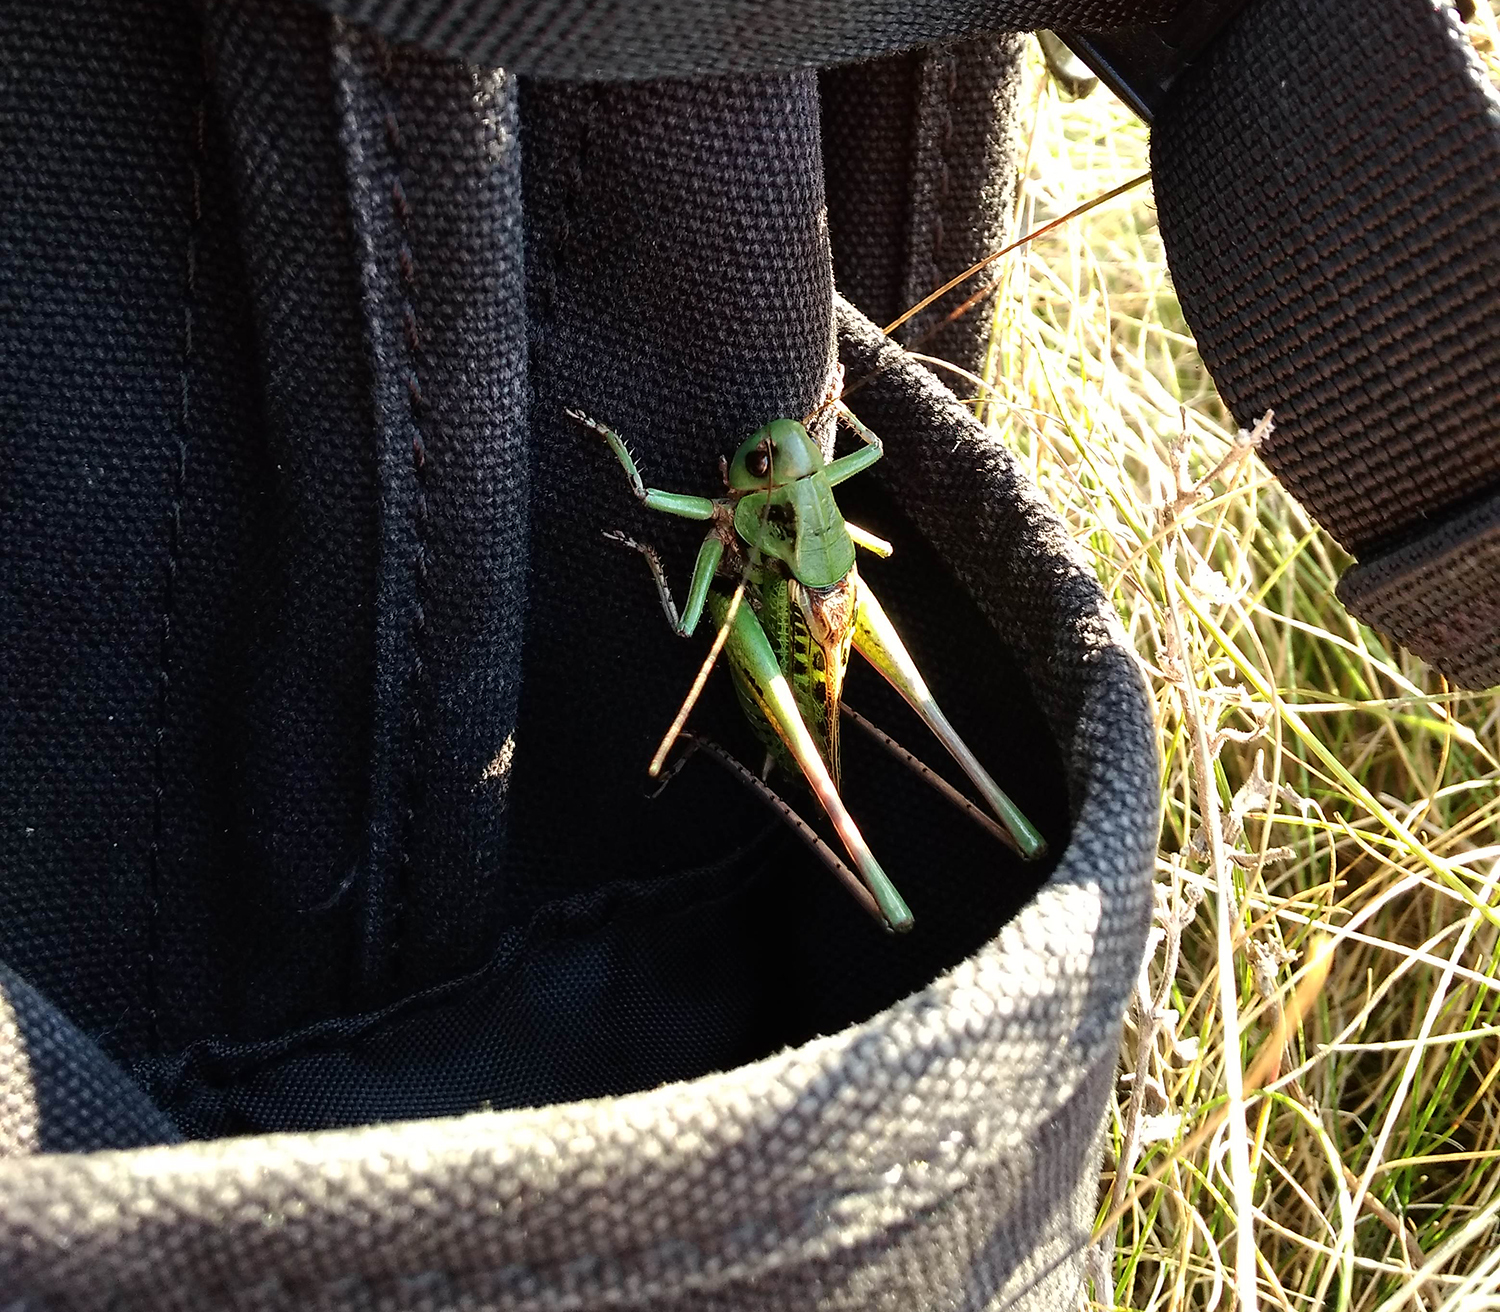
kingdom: Animalia
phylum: Arthropoda
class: Insecta
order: Orthoptera
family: Tettigoniidae
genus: Decticus
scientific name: Decticus verrucivorus
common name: Wart-biter
